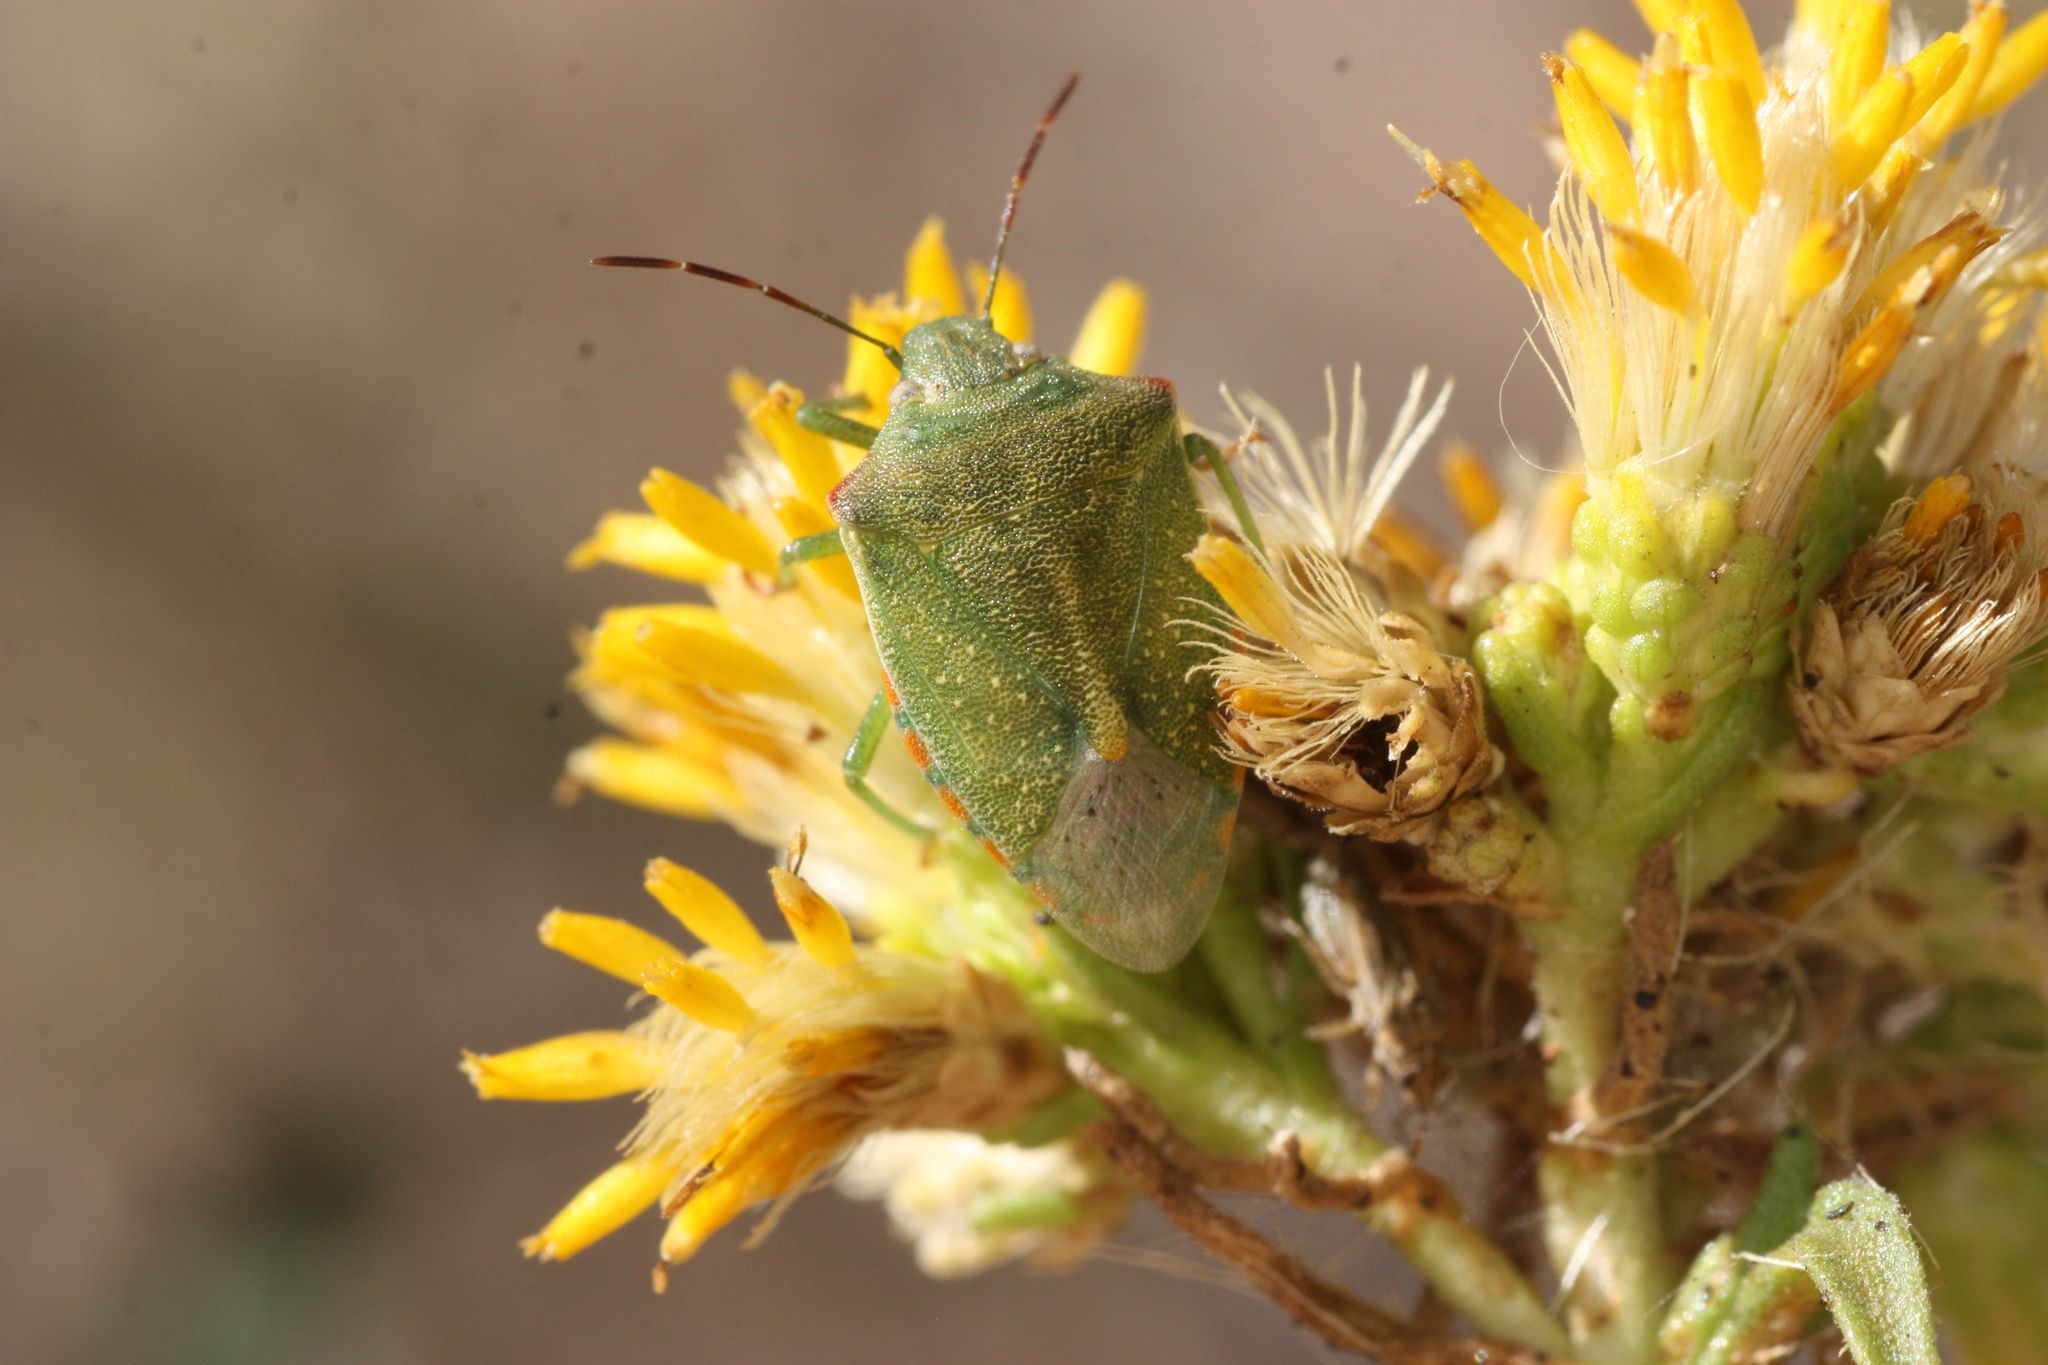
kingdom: Animalia
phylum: Arthropoda
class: Insecta
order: Hemiptera
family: Pentatomidae
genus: Thyanta
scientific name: Thyanta accerra
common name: Stink bug
